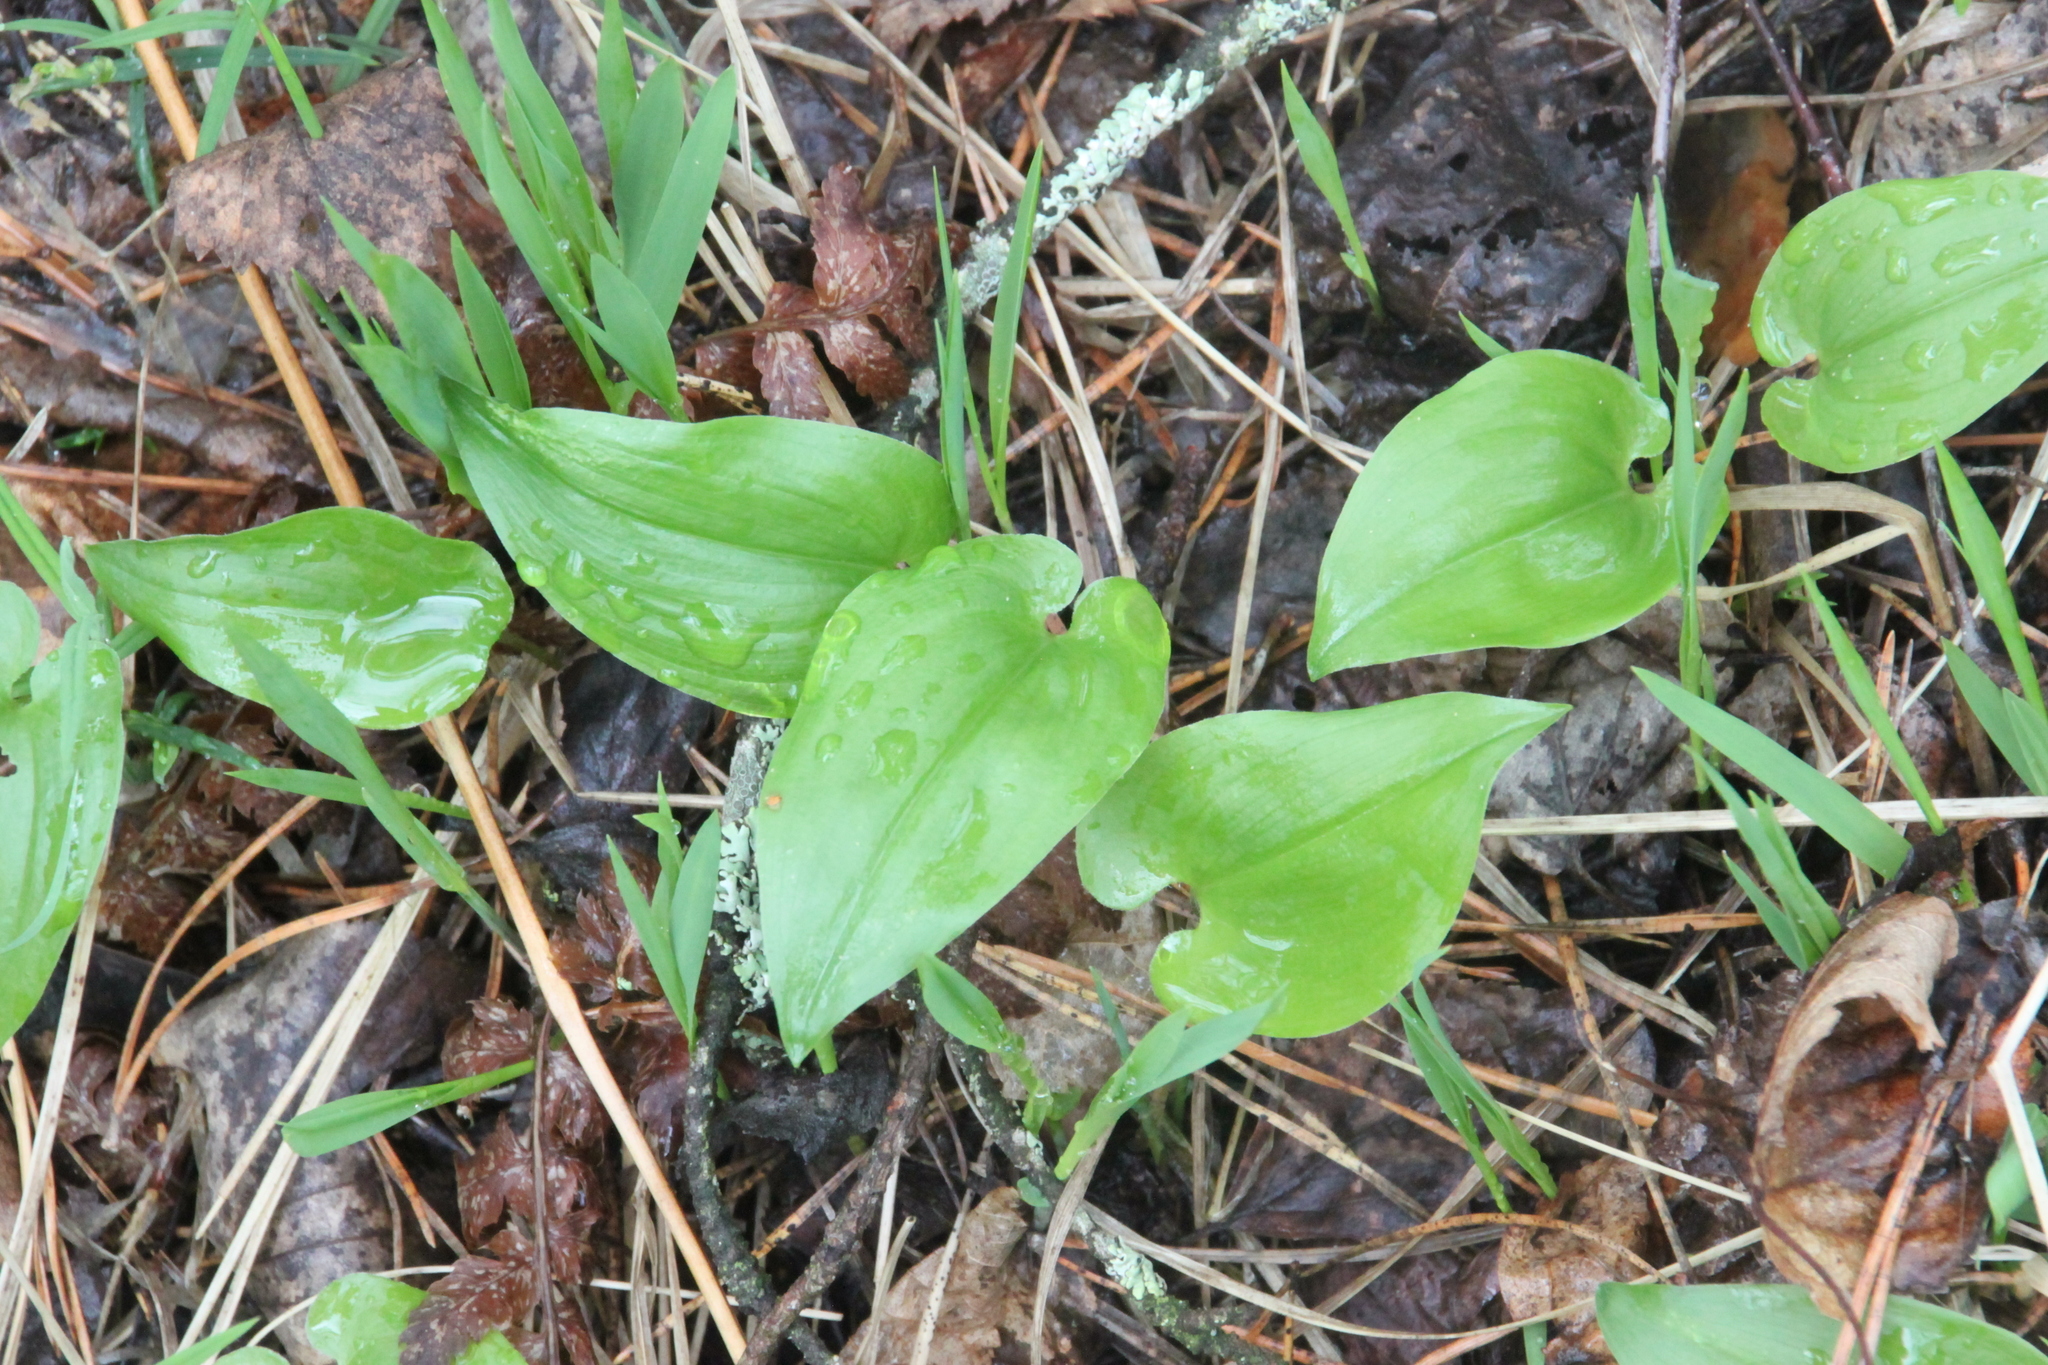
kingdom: Plantae
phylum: Tracheophyta
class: Liliopsida
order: Asparagales
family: Asparagaceae
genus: Maianthemum
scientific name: Maianthemum bifolium
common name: May lily
